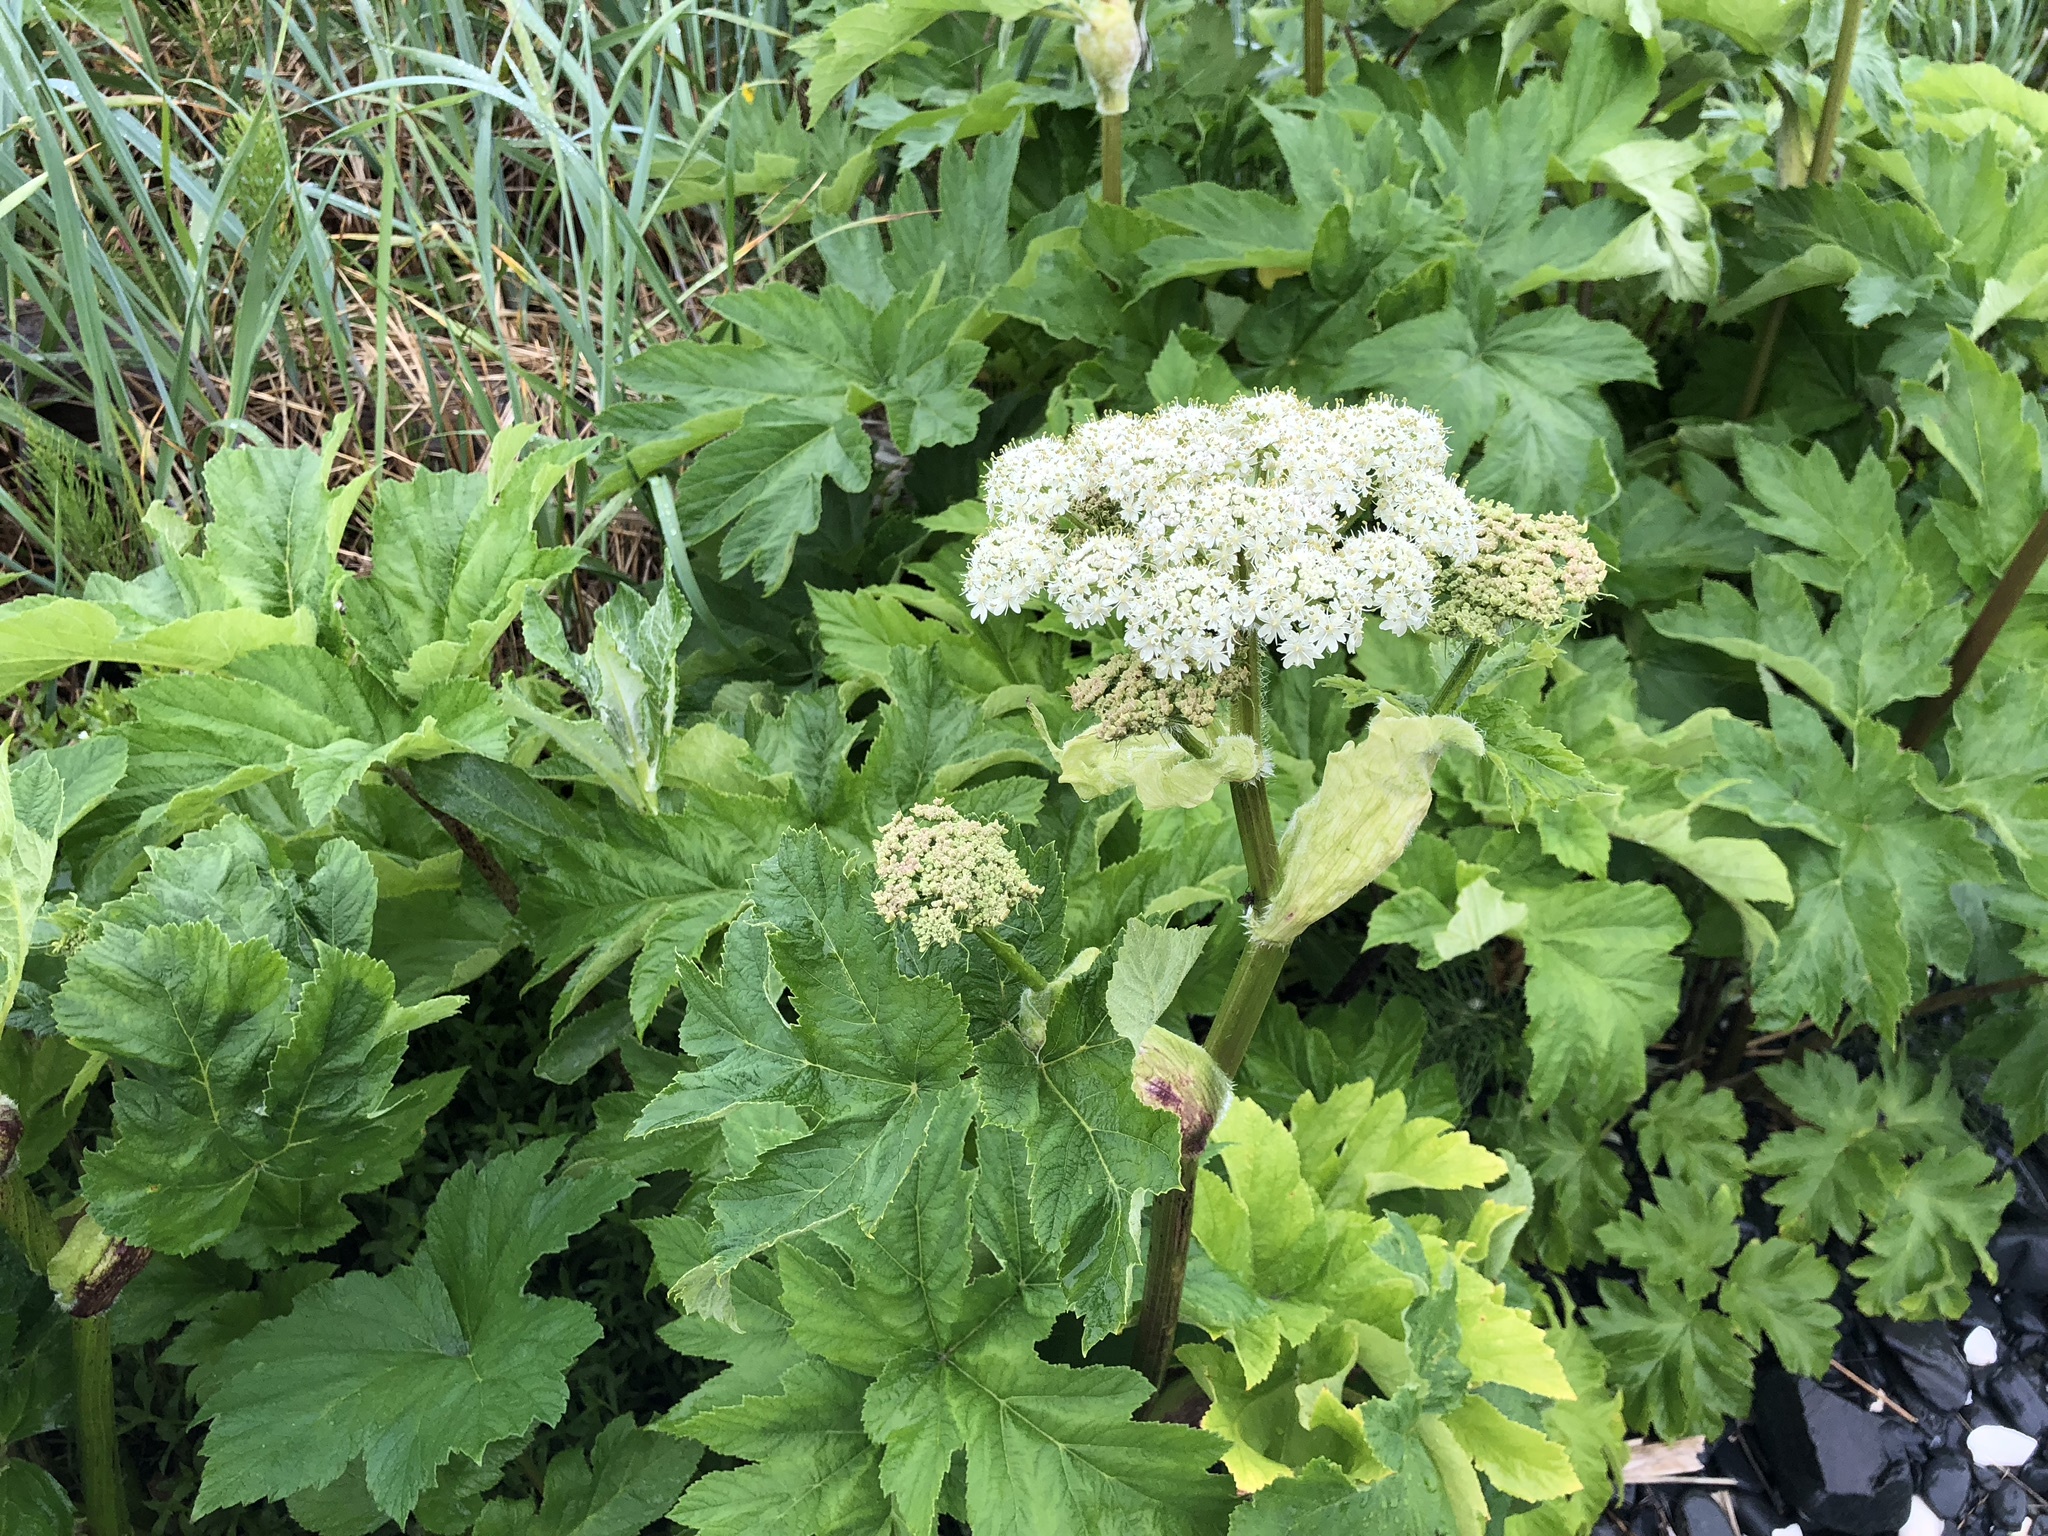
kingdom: Plantae
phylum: Tracheophyta
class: Magnoliopsida
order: Apiales
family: Apiaceae
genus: Heracleum
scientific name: Heracleum maximum
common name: American cow parsnip
